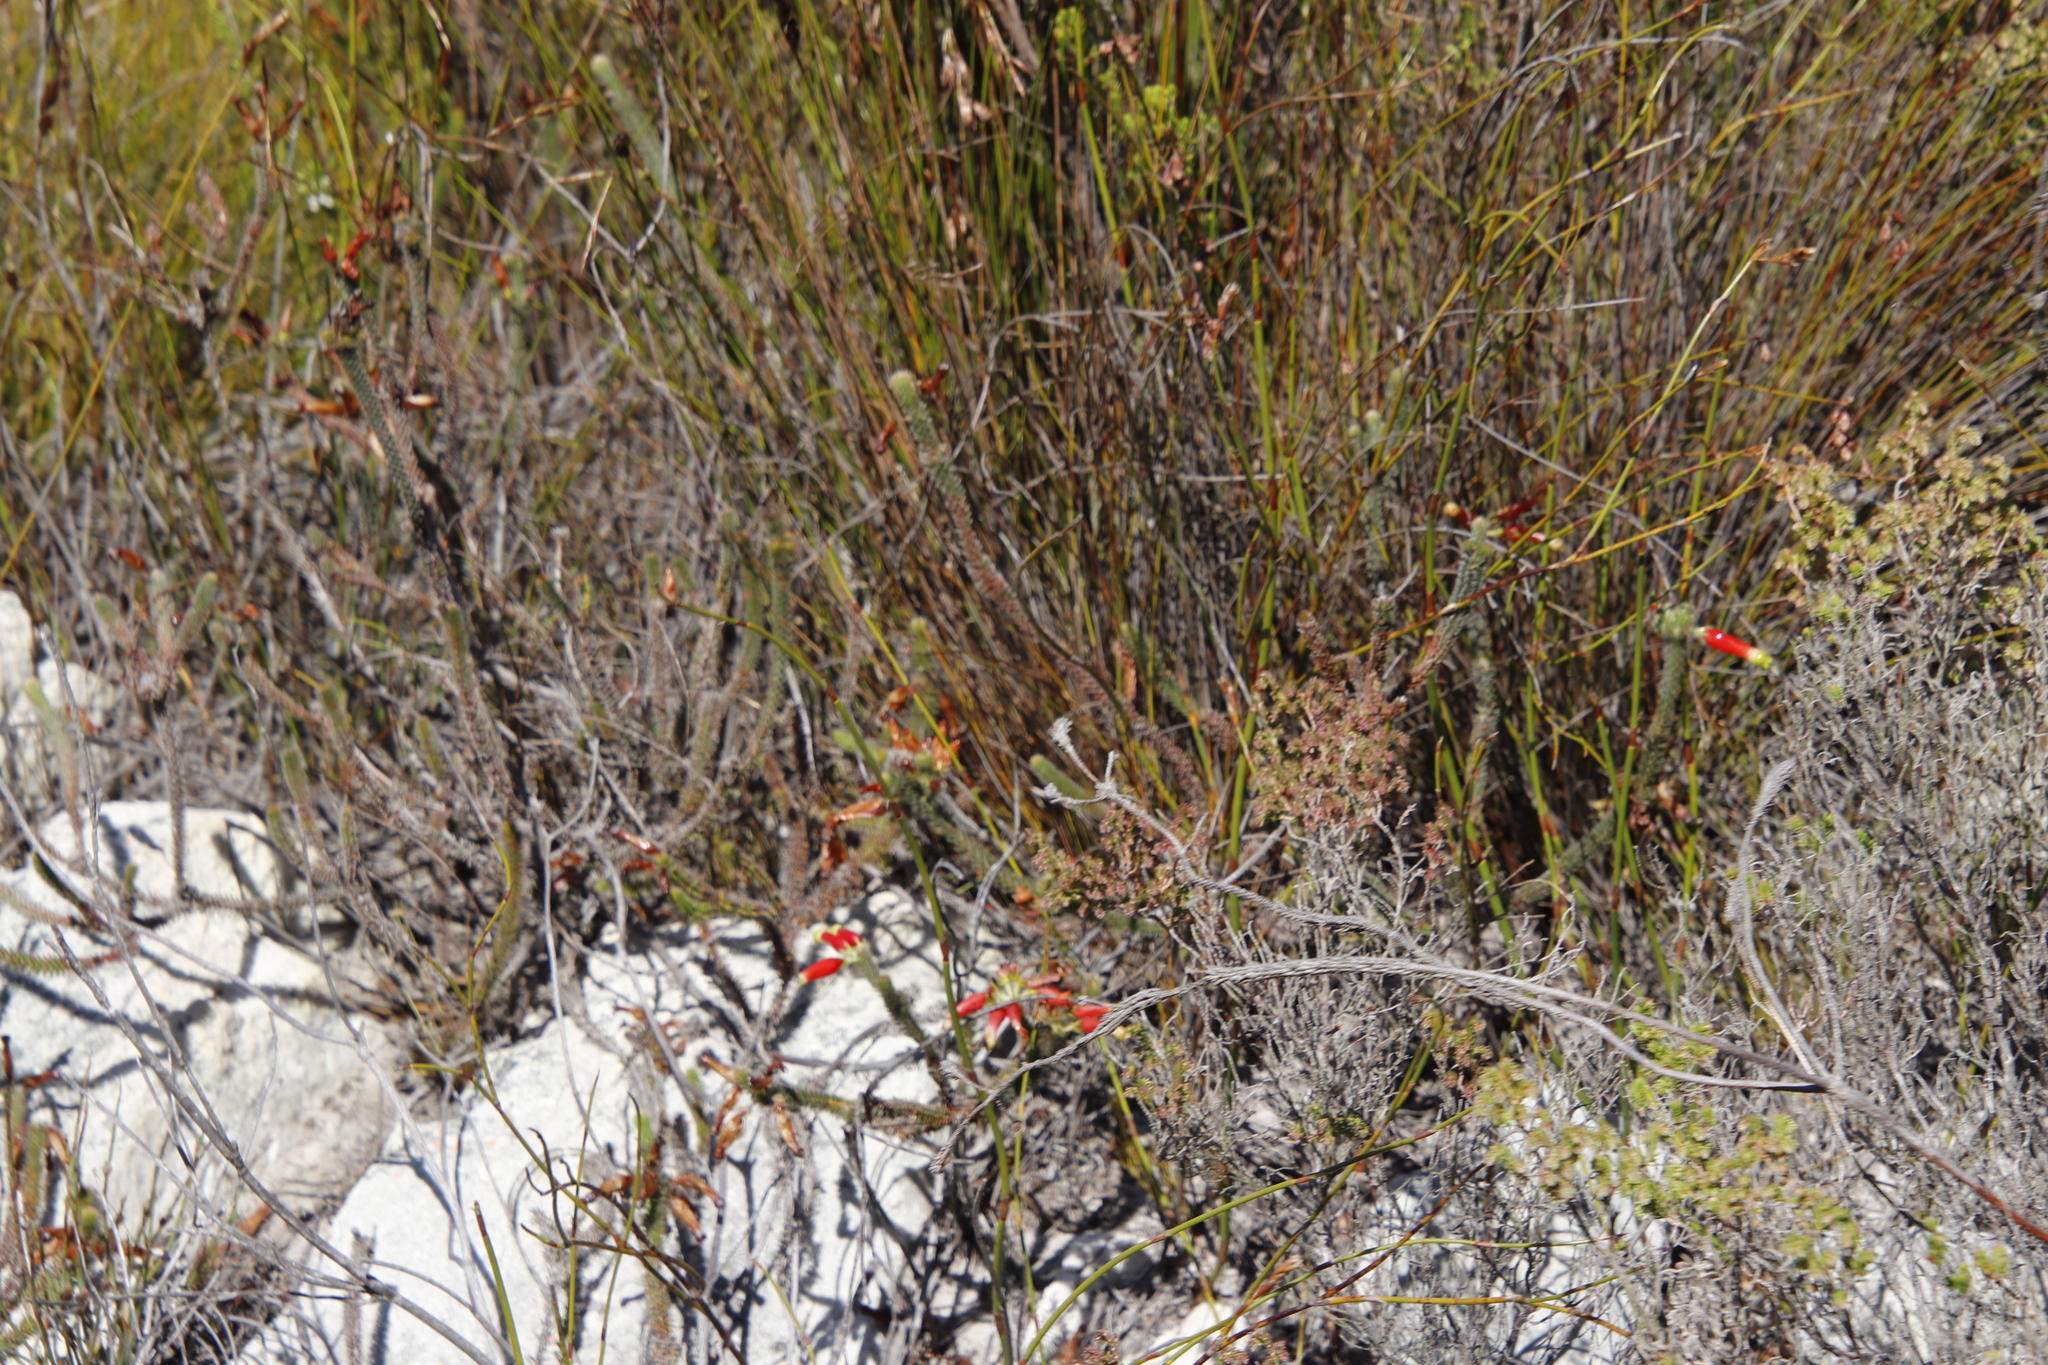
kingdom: Plantae
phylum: Tracheophyta
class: Magnoliopsida
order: Ericales
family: Ericaceae
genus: Erica
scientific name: Erica massonii
